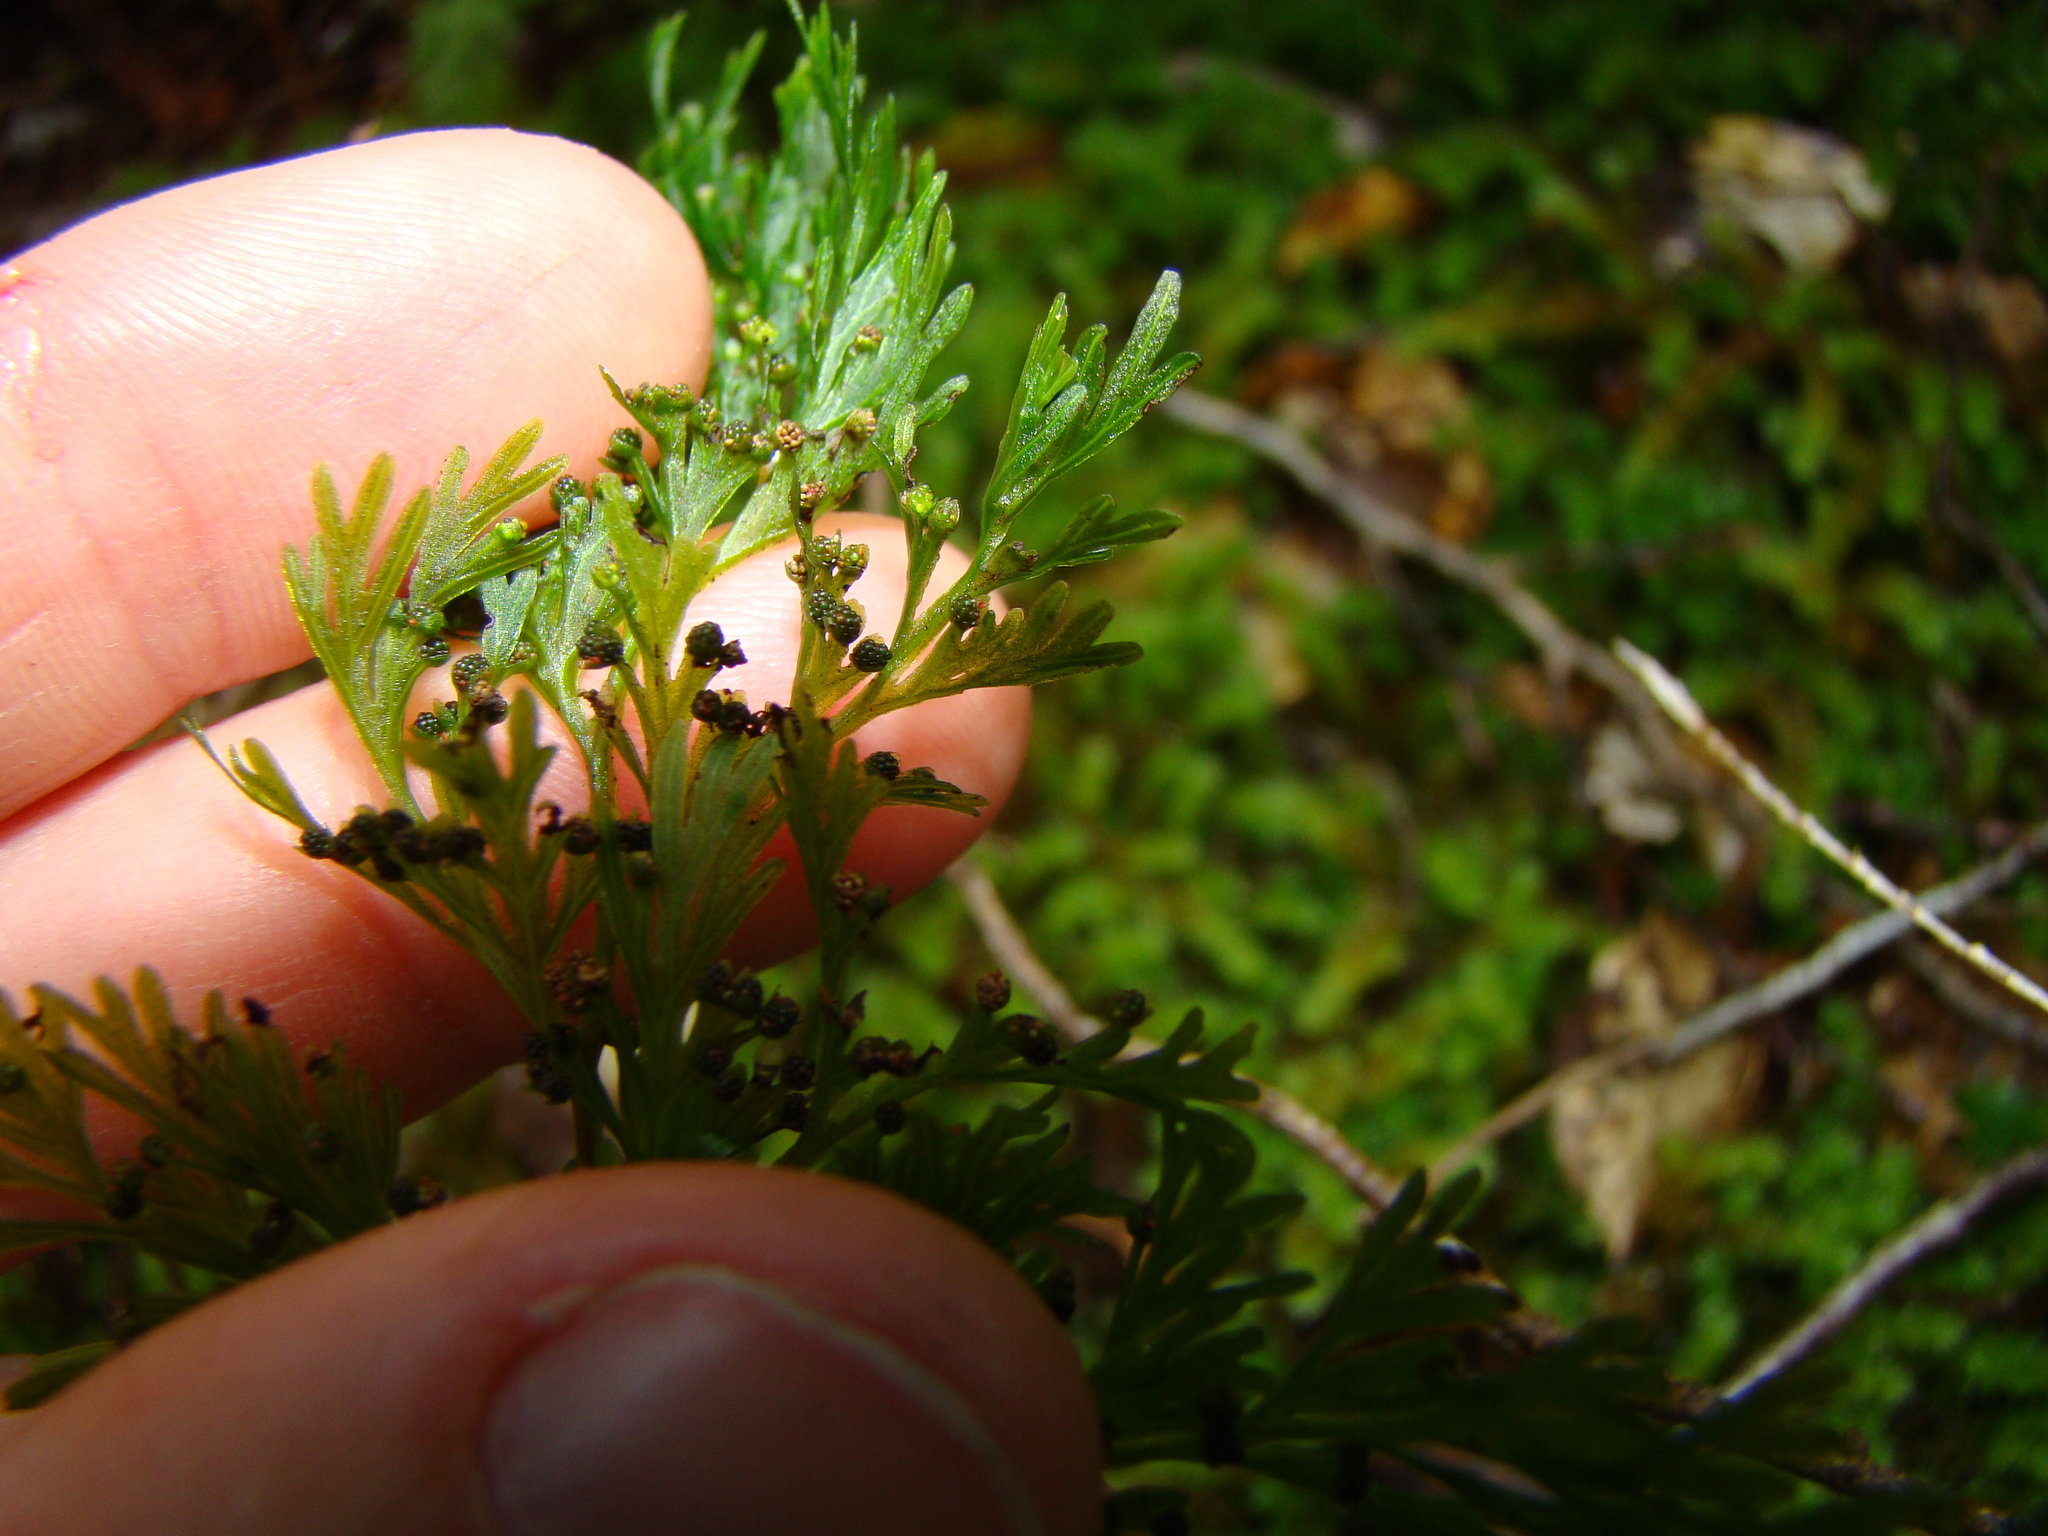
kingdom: Plantae
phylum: Tracheophyta
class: Polypodiopsida
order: Hymenophyllales
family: Hymenophyllaceae
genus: Hymenophyllum
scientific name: Hymenophyllum demissum
